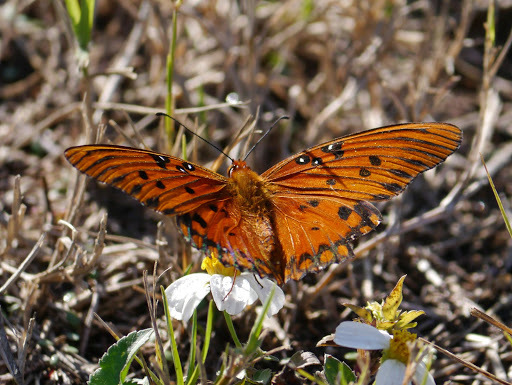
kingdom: Animalia
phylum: Arthropoda
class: Insecta
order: Lepidoptera
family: Nymphalidae
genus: Dione
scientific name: Dione vanillae
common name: Gulf fritillary
